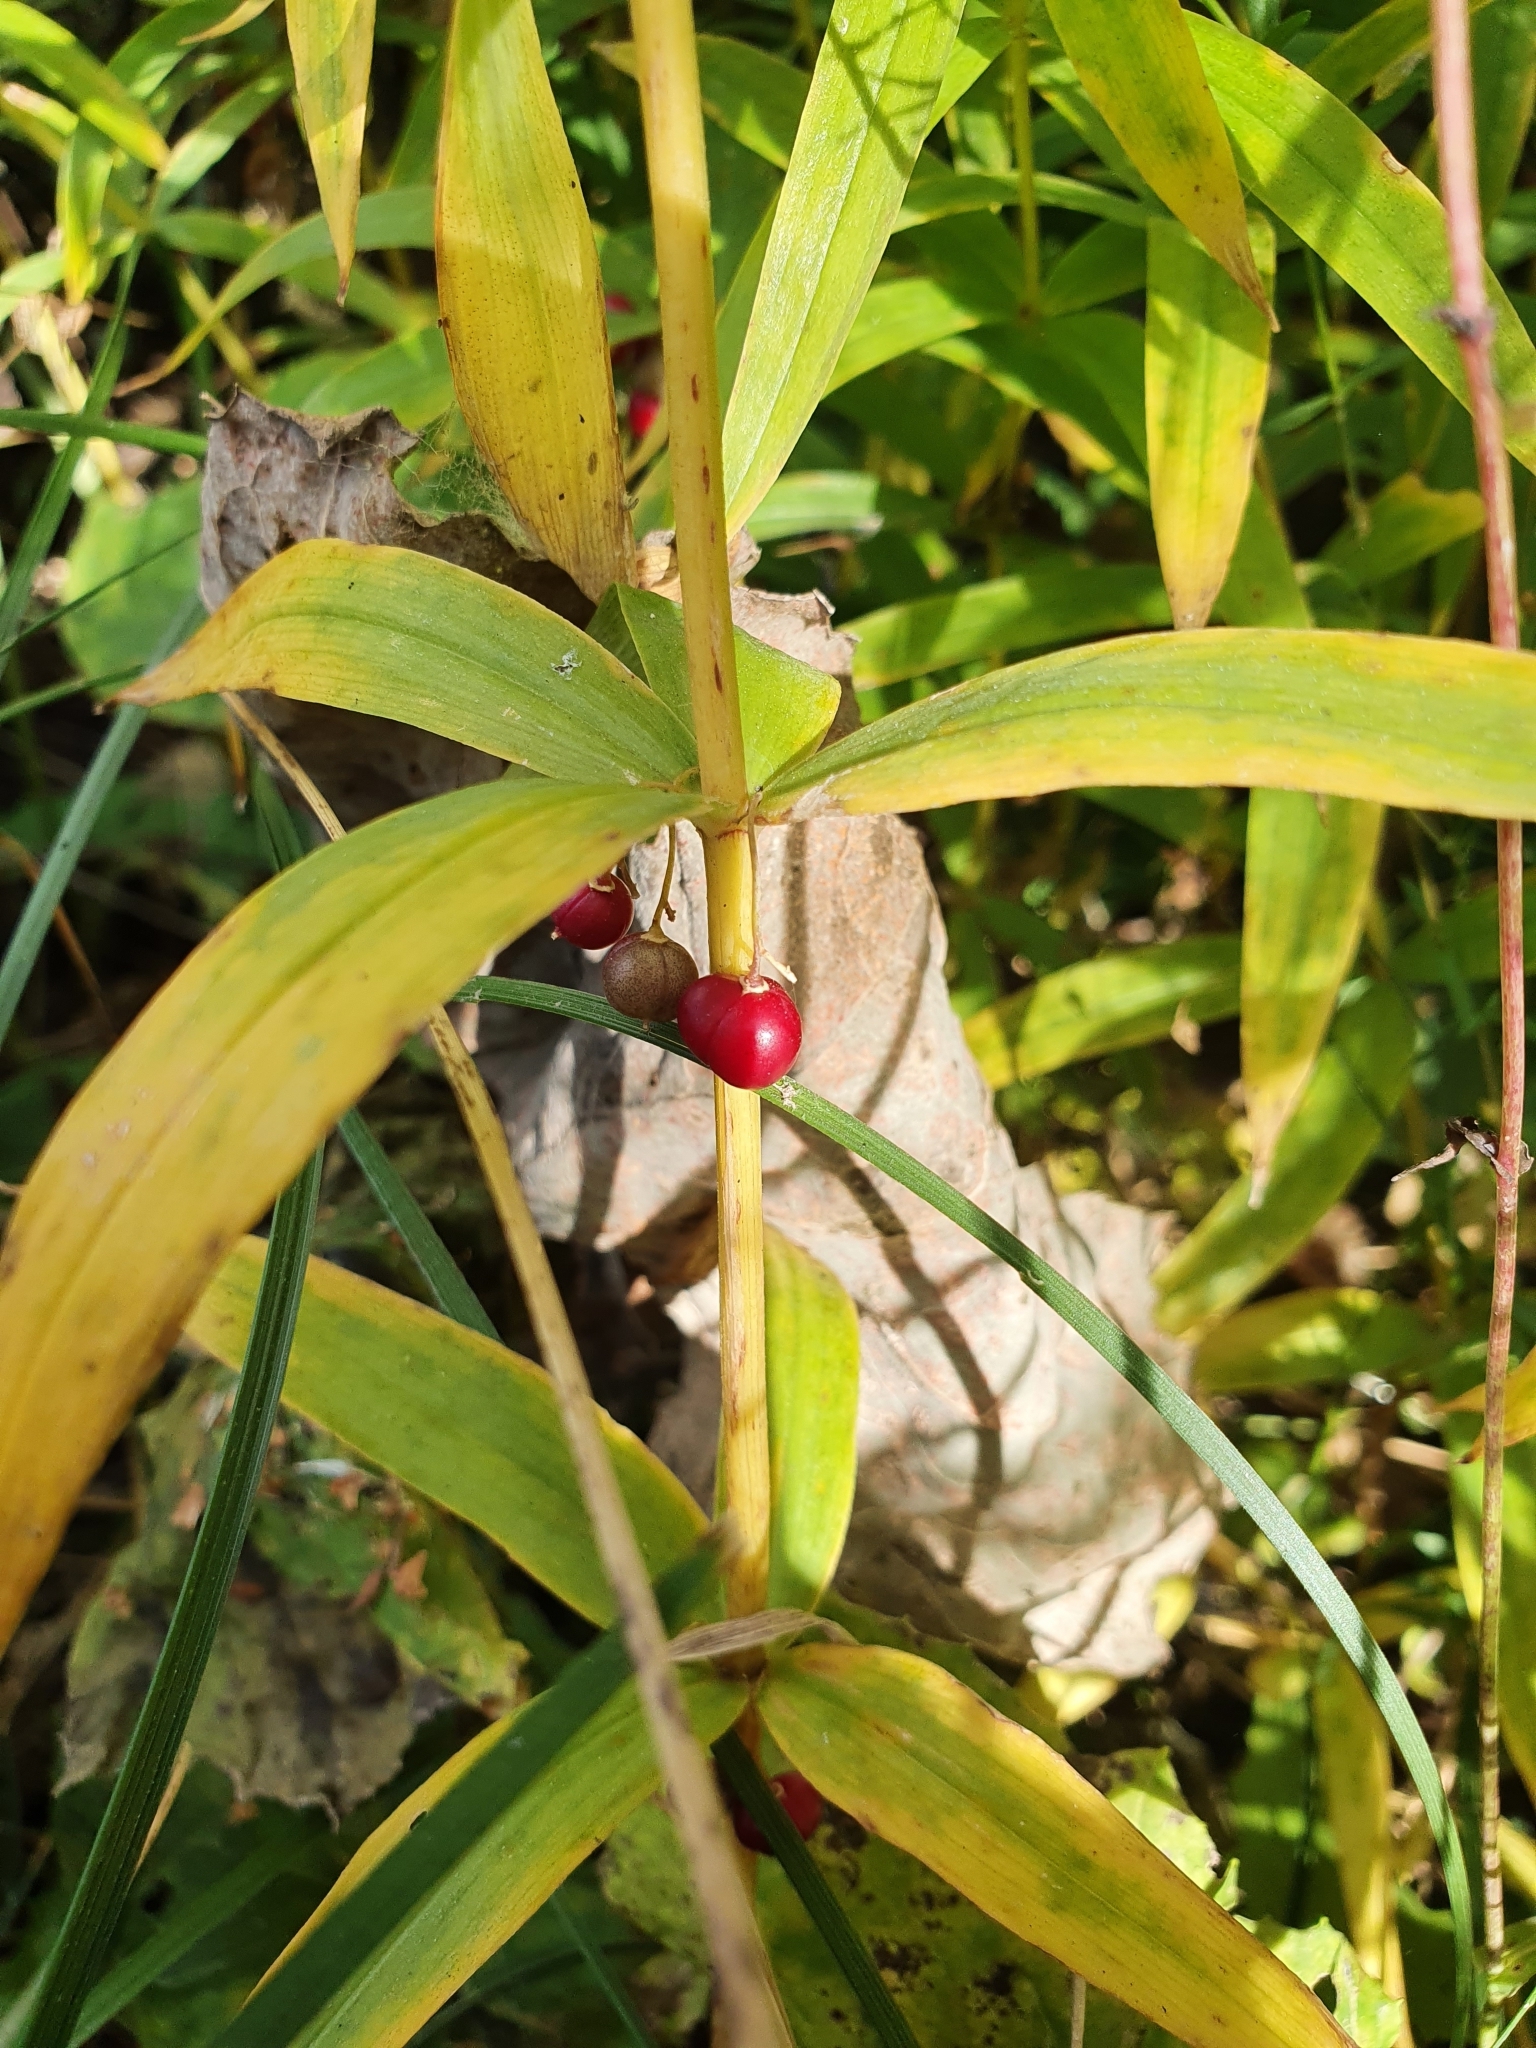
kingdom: Plantae
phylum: Tracheophyta
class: Liliopsida
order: Asparagales
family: Asparagaceae
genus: Polygonatum
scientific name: Polygonatum verticillatum
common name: Whorled solomon's-seal
